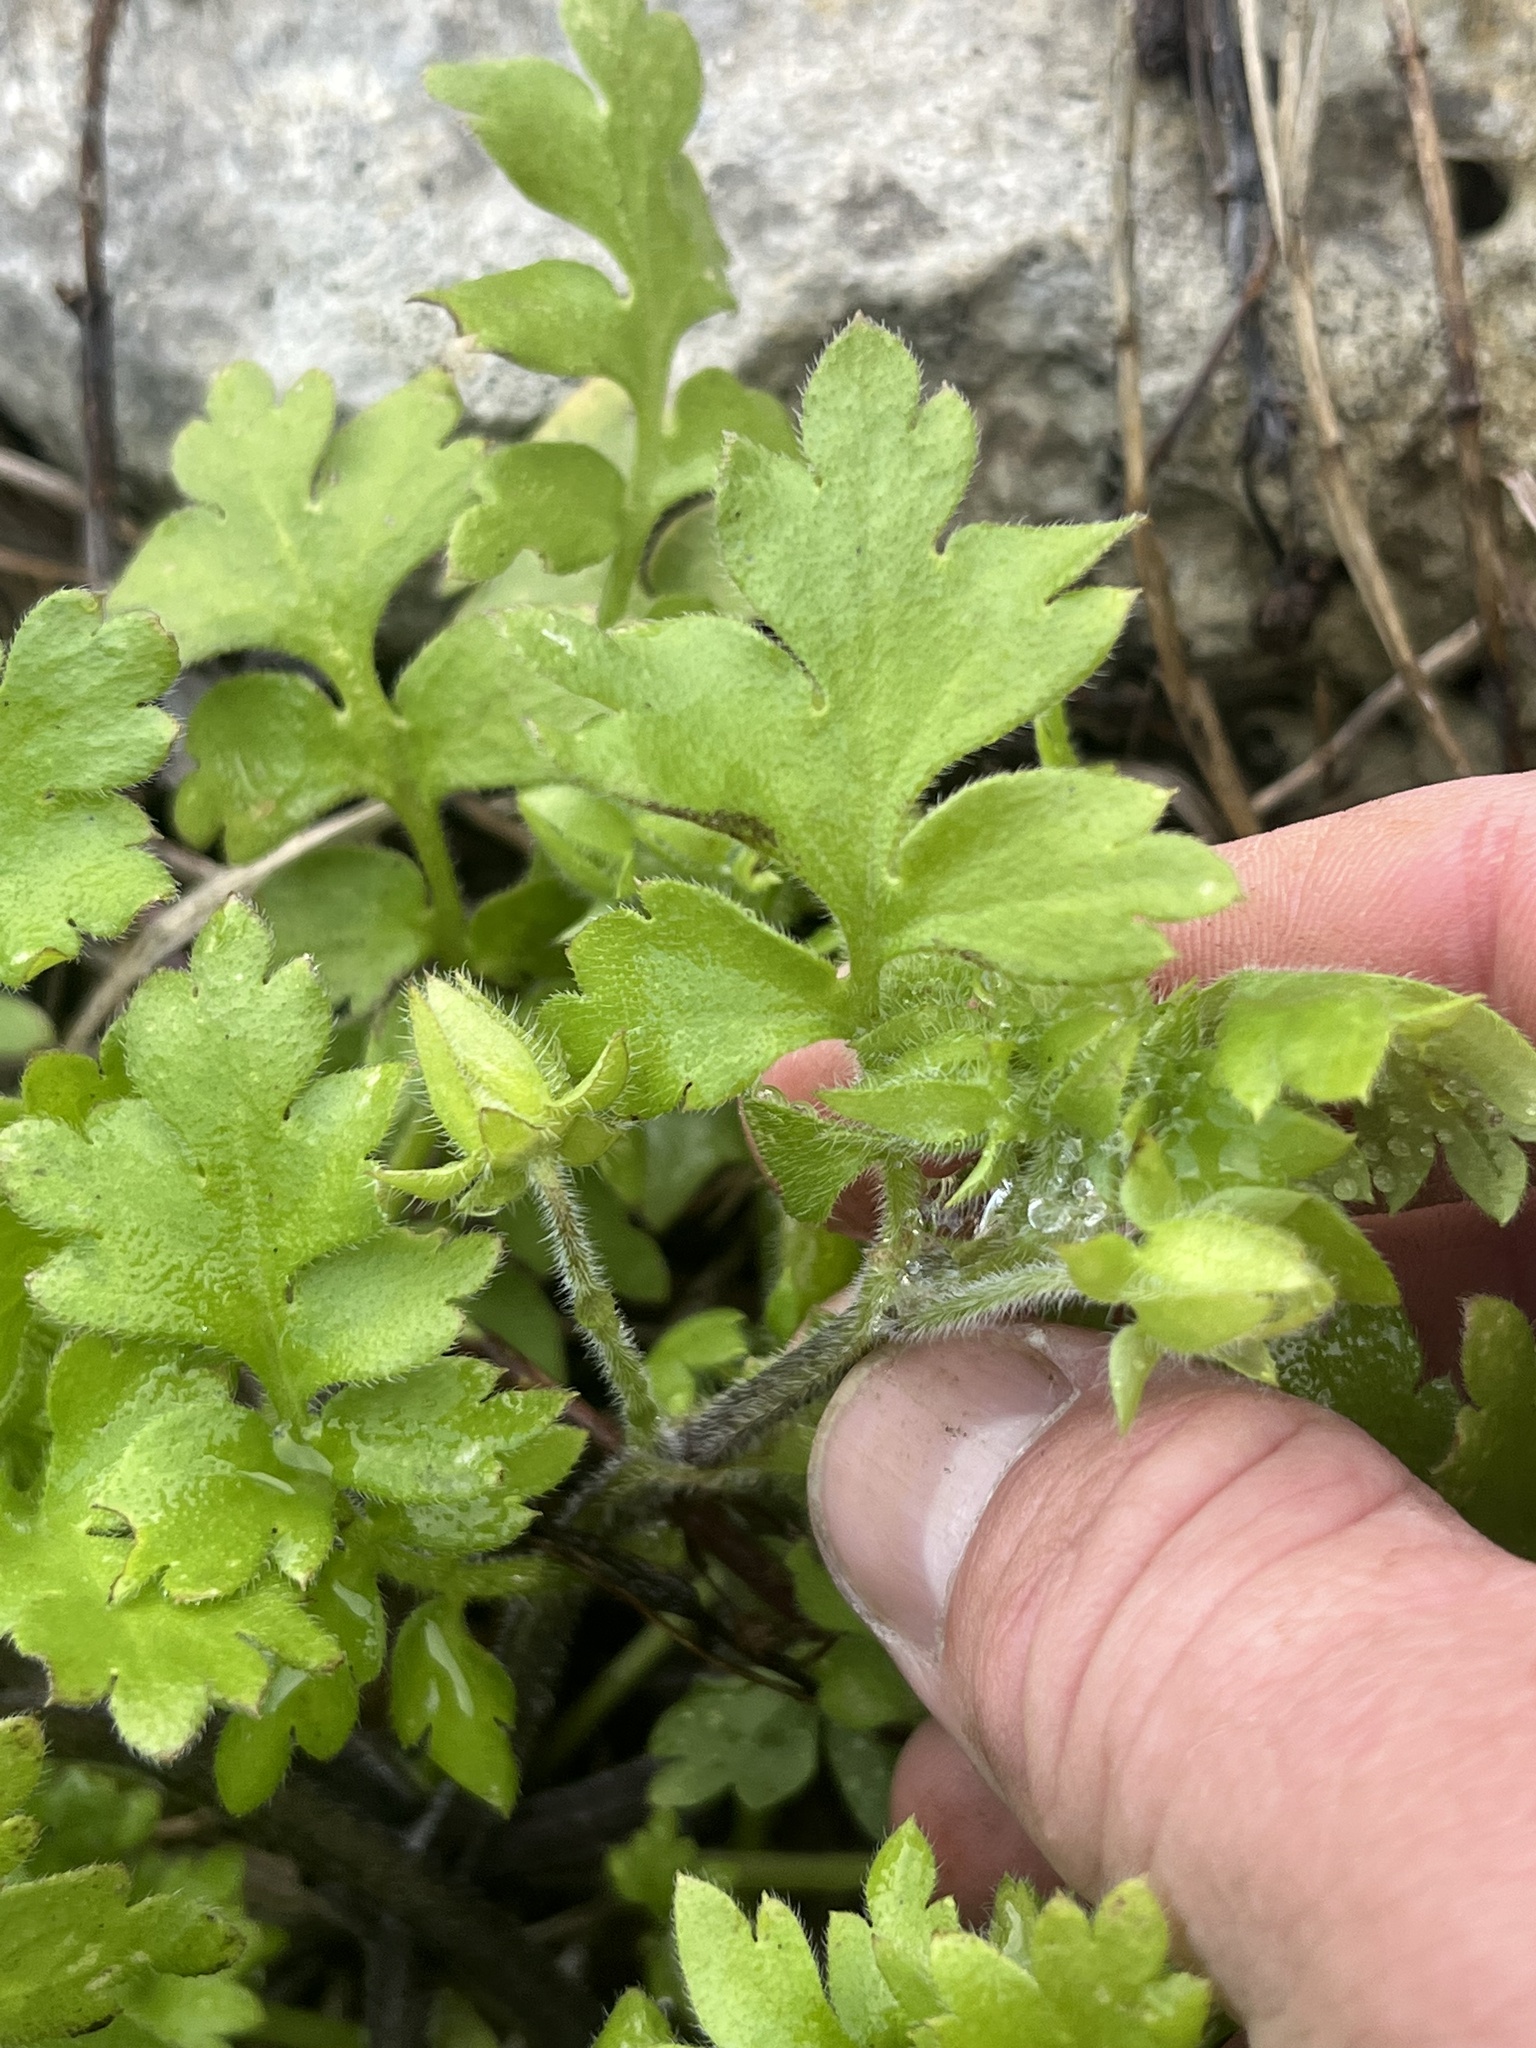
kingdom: Plantae
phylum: Tracheophyta
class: Magnoliopsida
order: Boraginales
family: Hydrophyllaceae
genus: Nemophila
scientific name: Nemophila phacelioides
